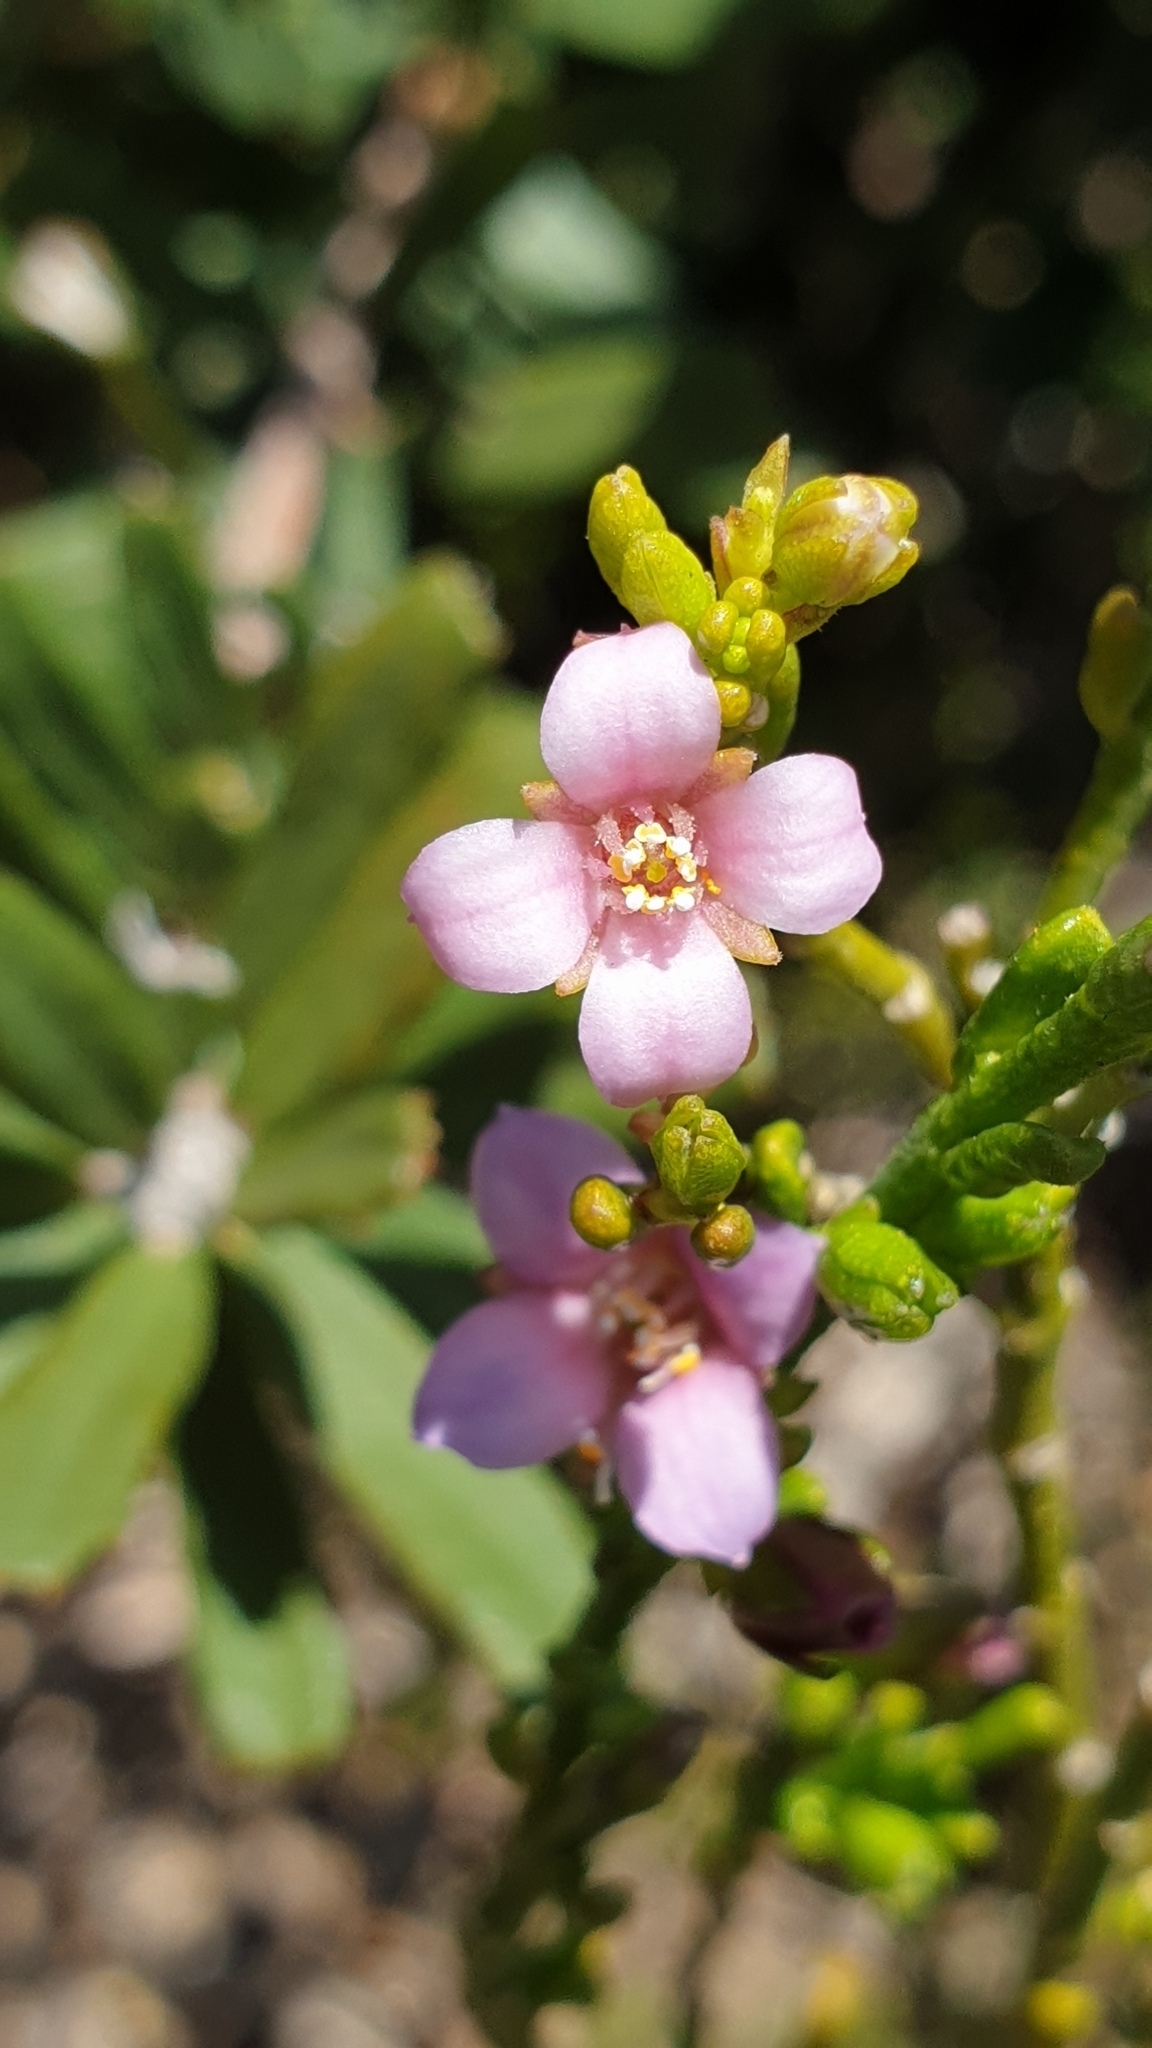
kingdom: Plantae
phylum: Tracheophyta
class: Magnoliopsida
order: Sapindales
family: Rutaceae
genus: Cyanothamnus
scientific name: Cyanothamnus coerulescens
